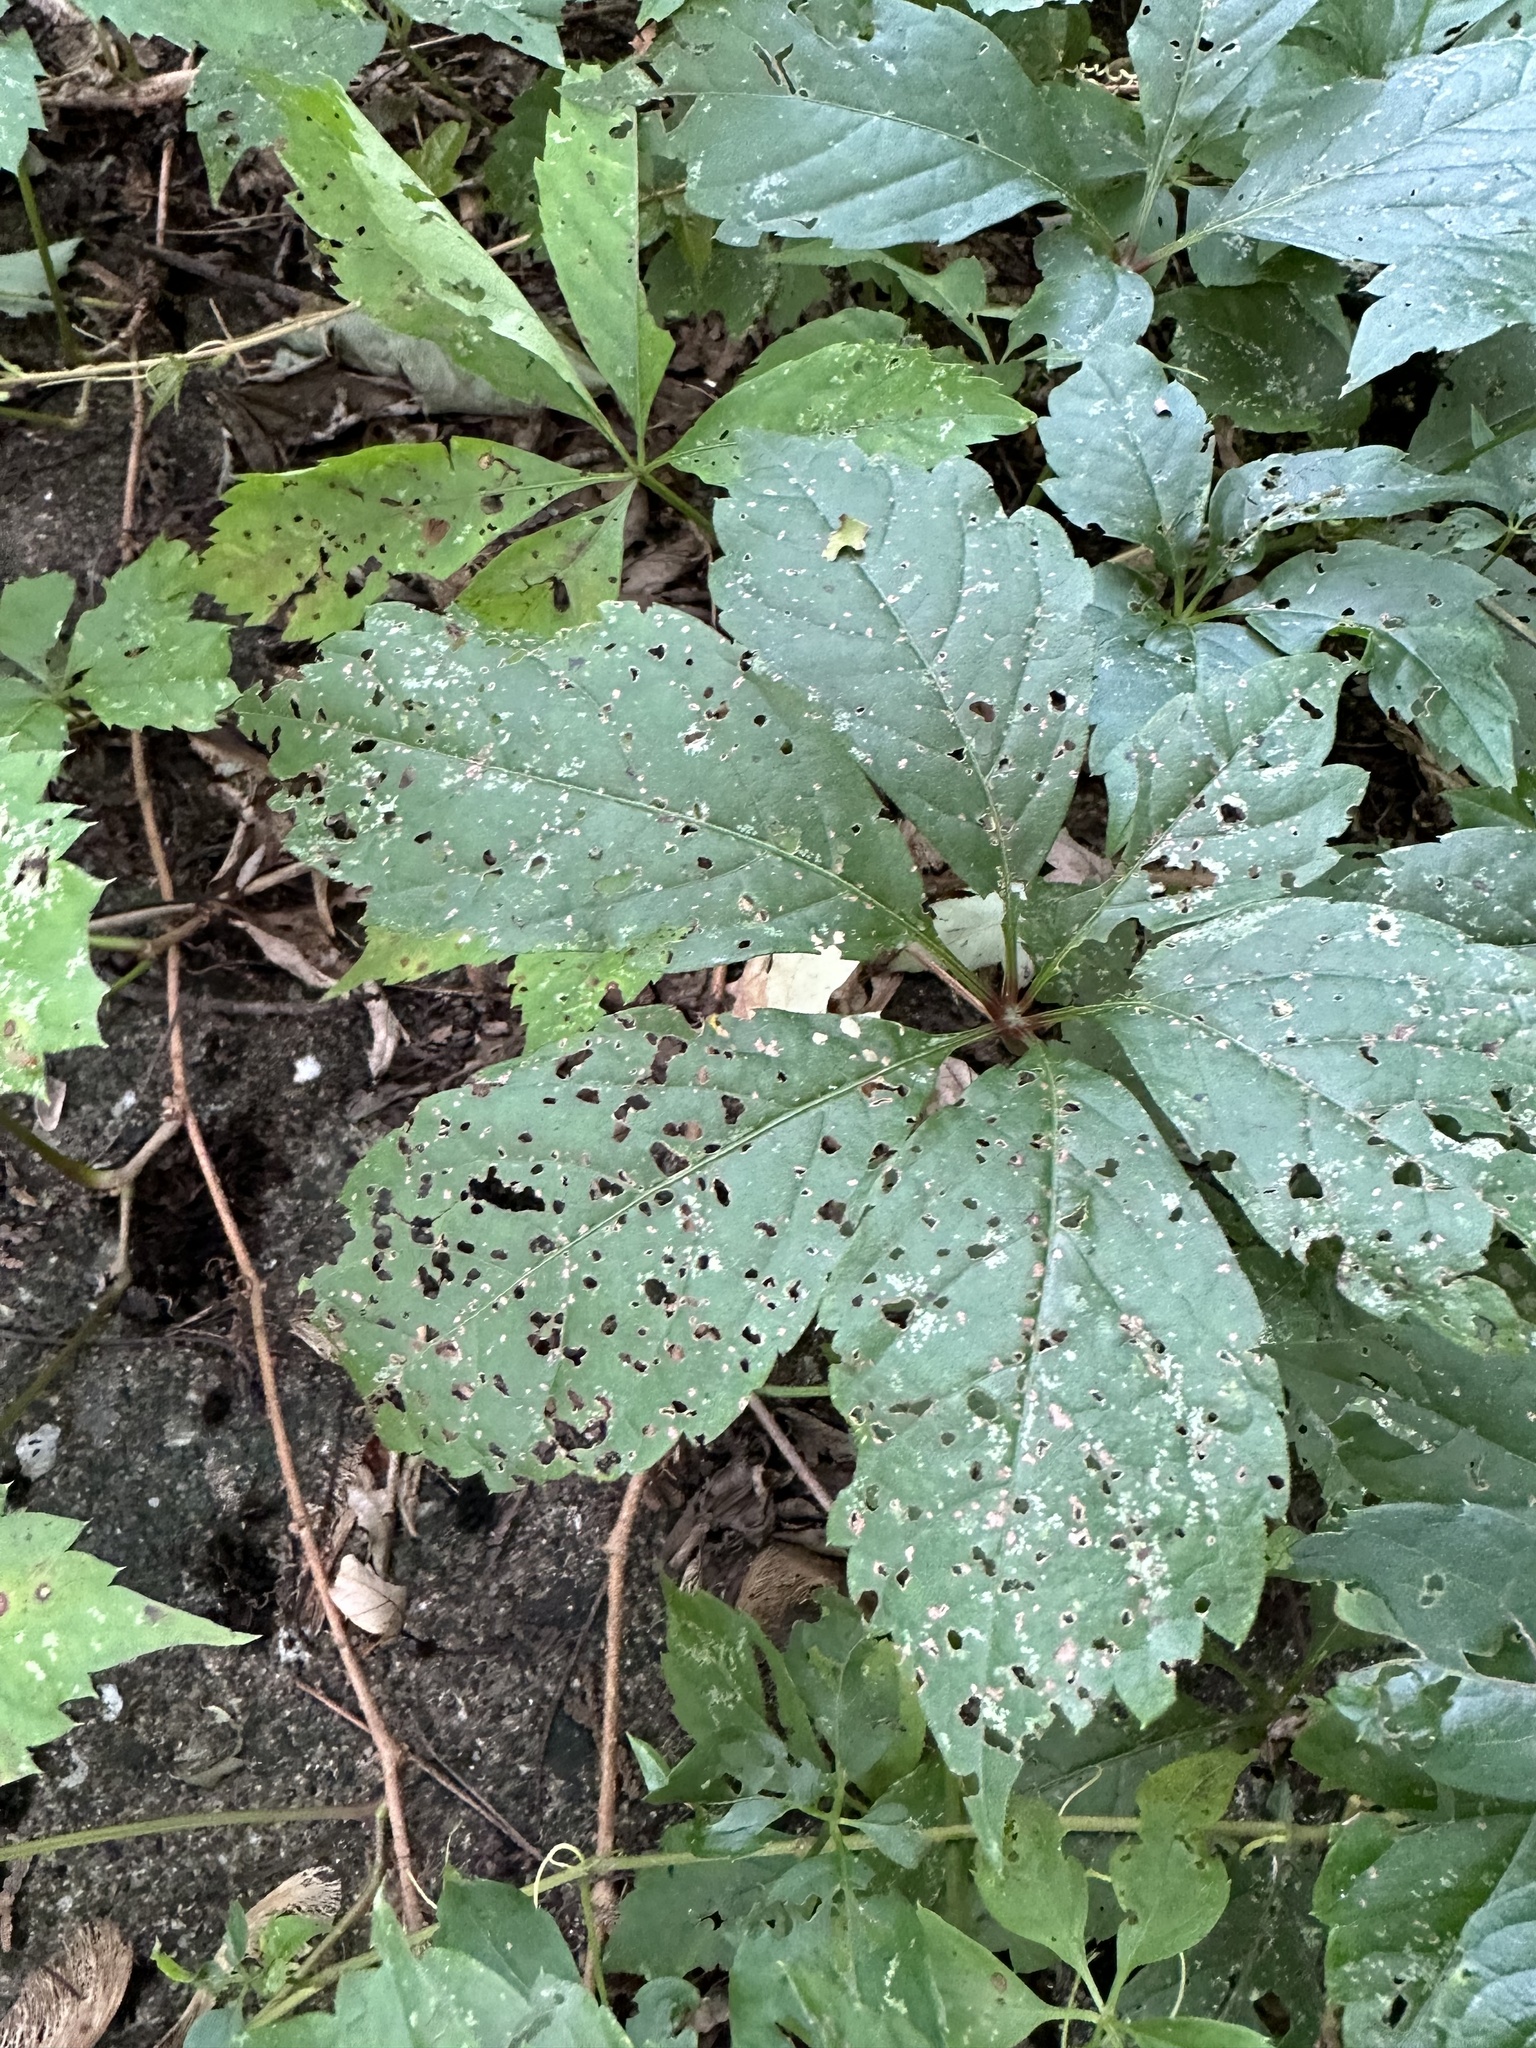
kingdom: Plantae
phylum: Tracheophyta
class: Magnoliopsida
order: Vitales
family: Vitaceae
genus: Parthenocissus
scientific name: Parthenocissus quinquefolia
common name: Virginia-creeper
